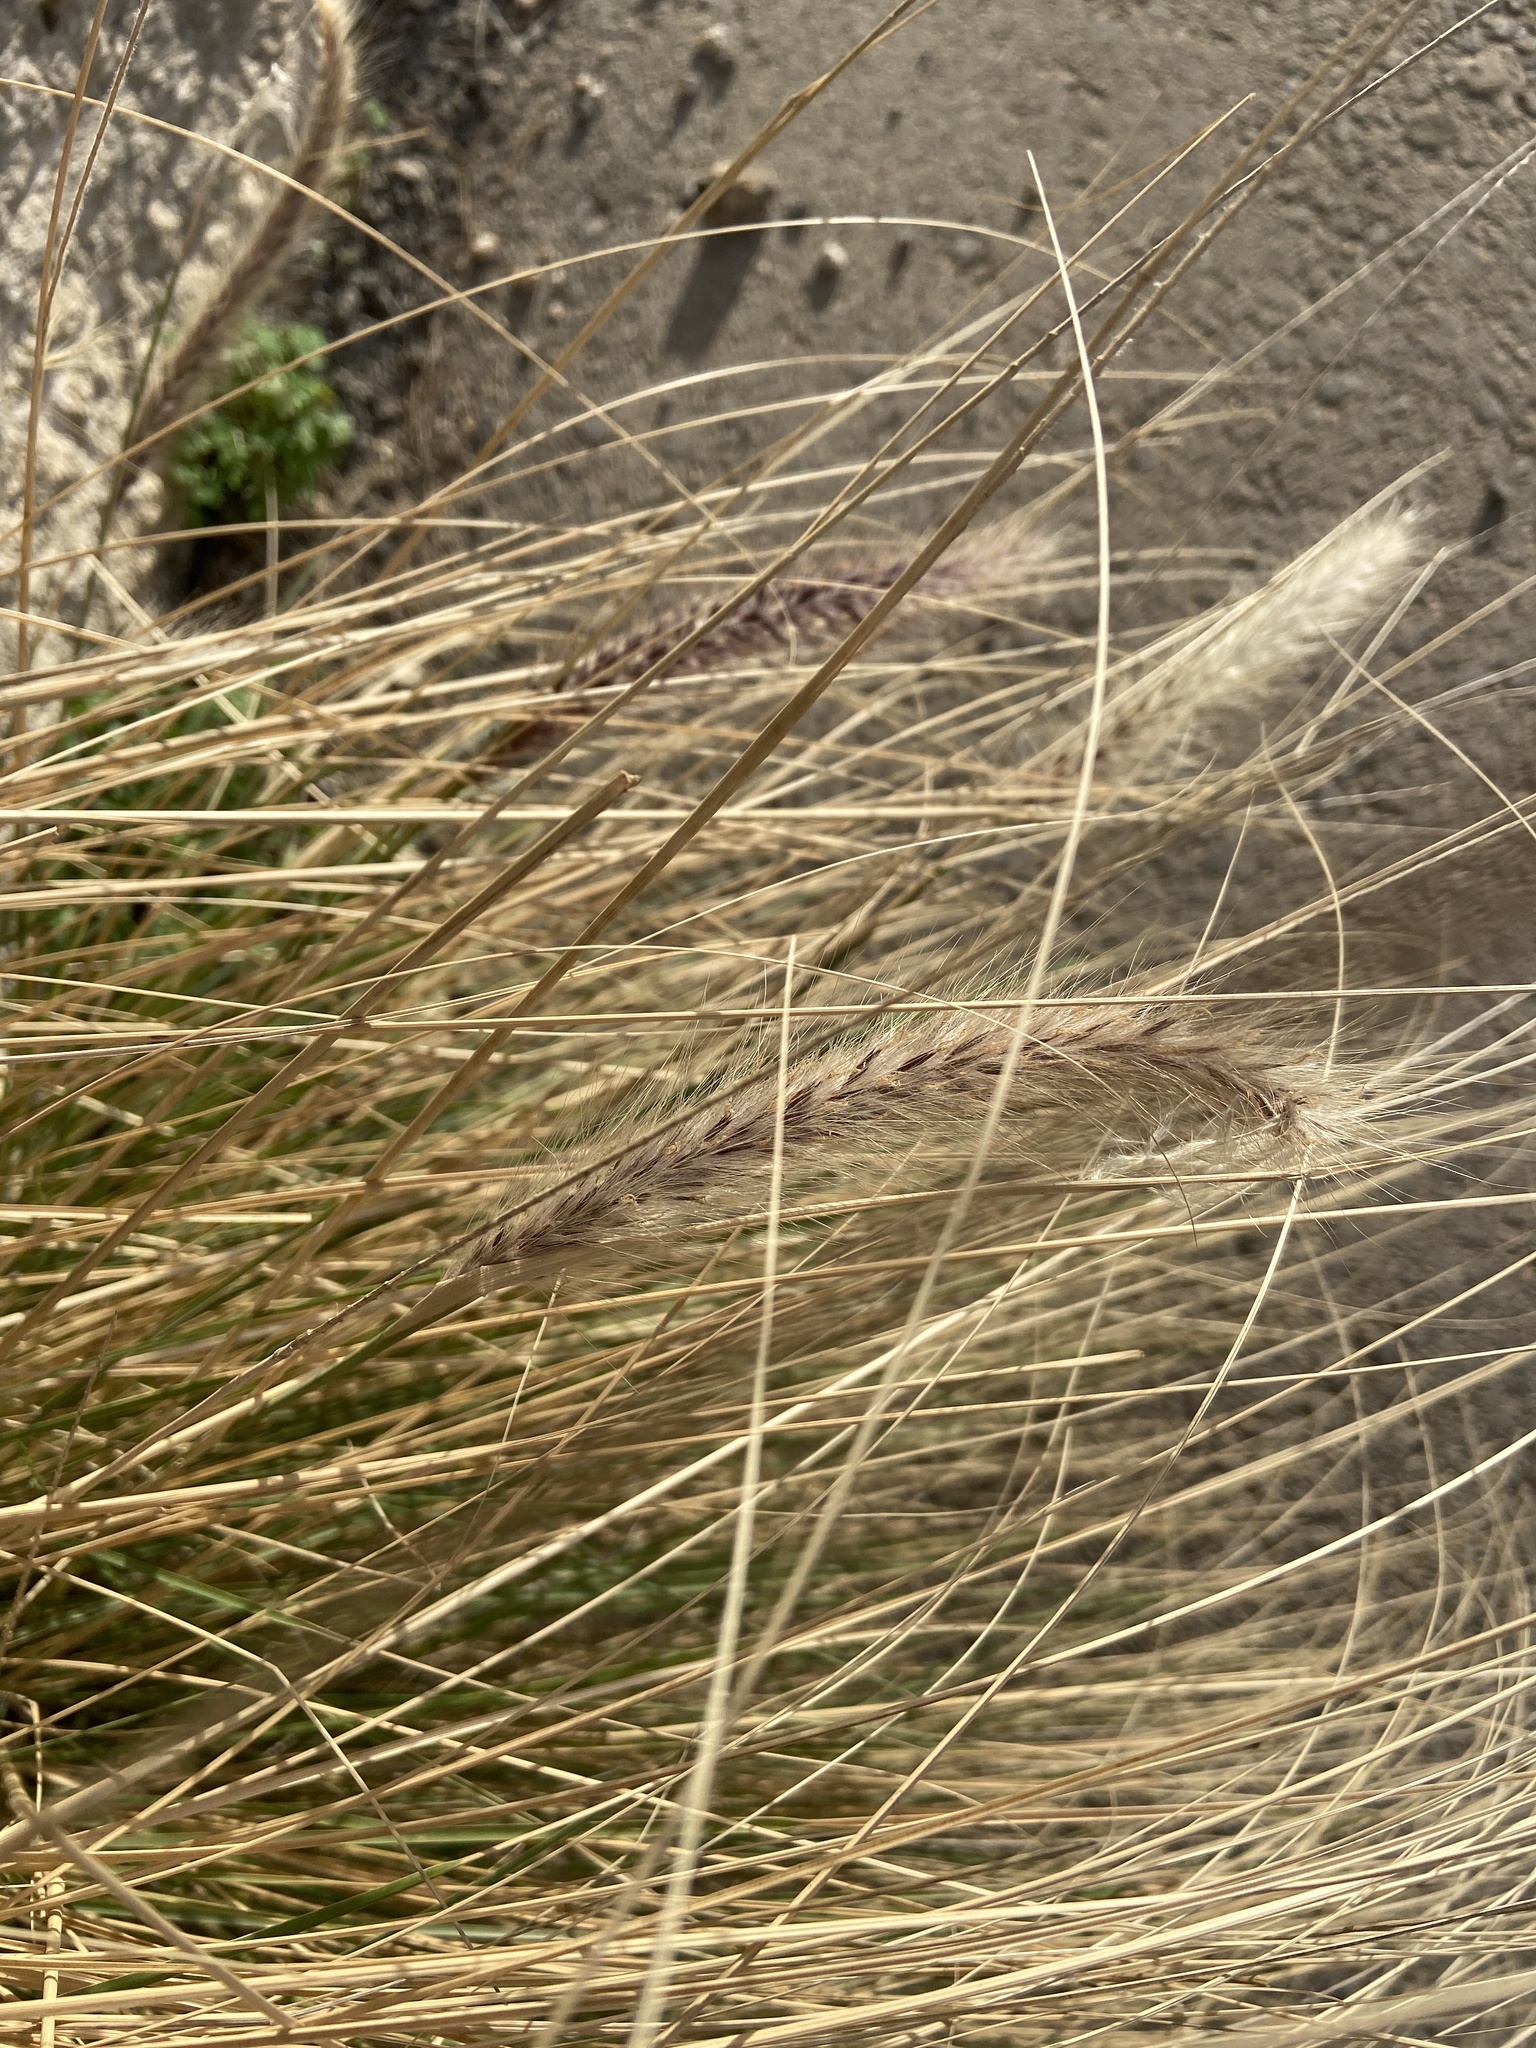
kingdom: Plantae
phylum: Tracheophyta
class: Liliopsida
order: Poales
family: Poaceae
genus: Cenchrus
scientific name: Cenchrus setaceus
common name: Crimson fountaingrass
